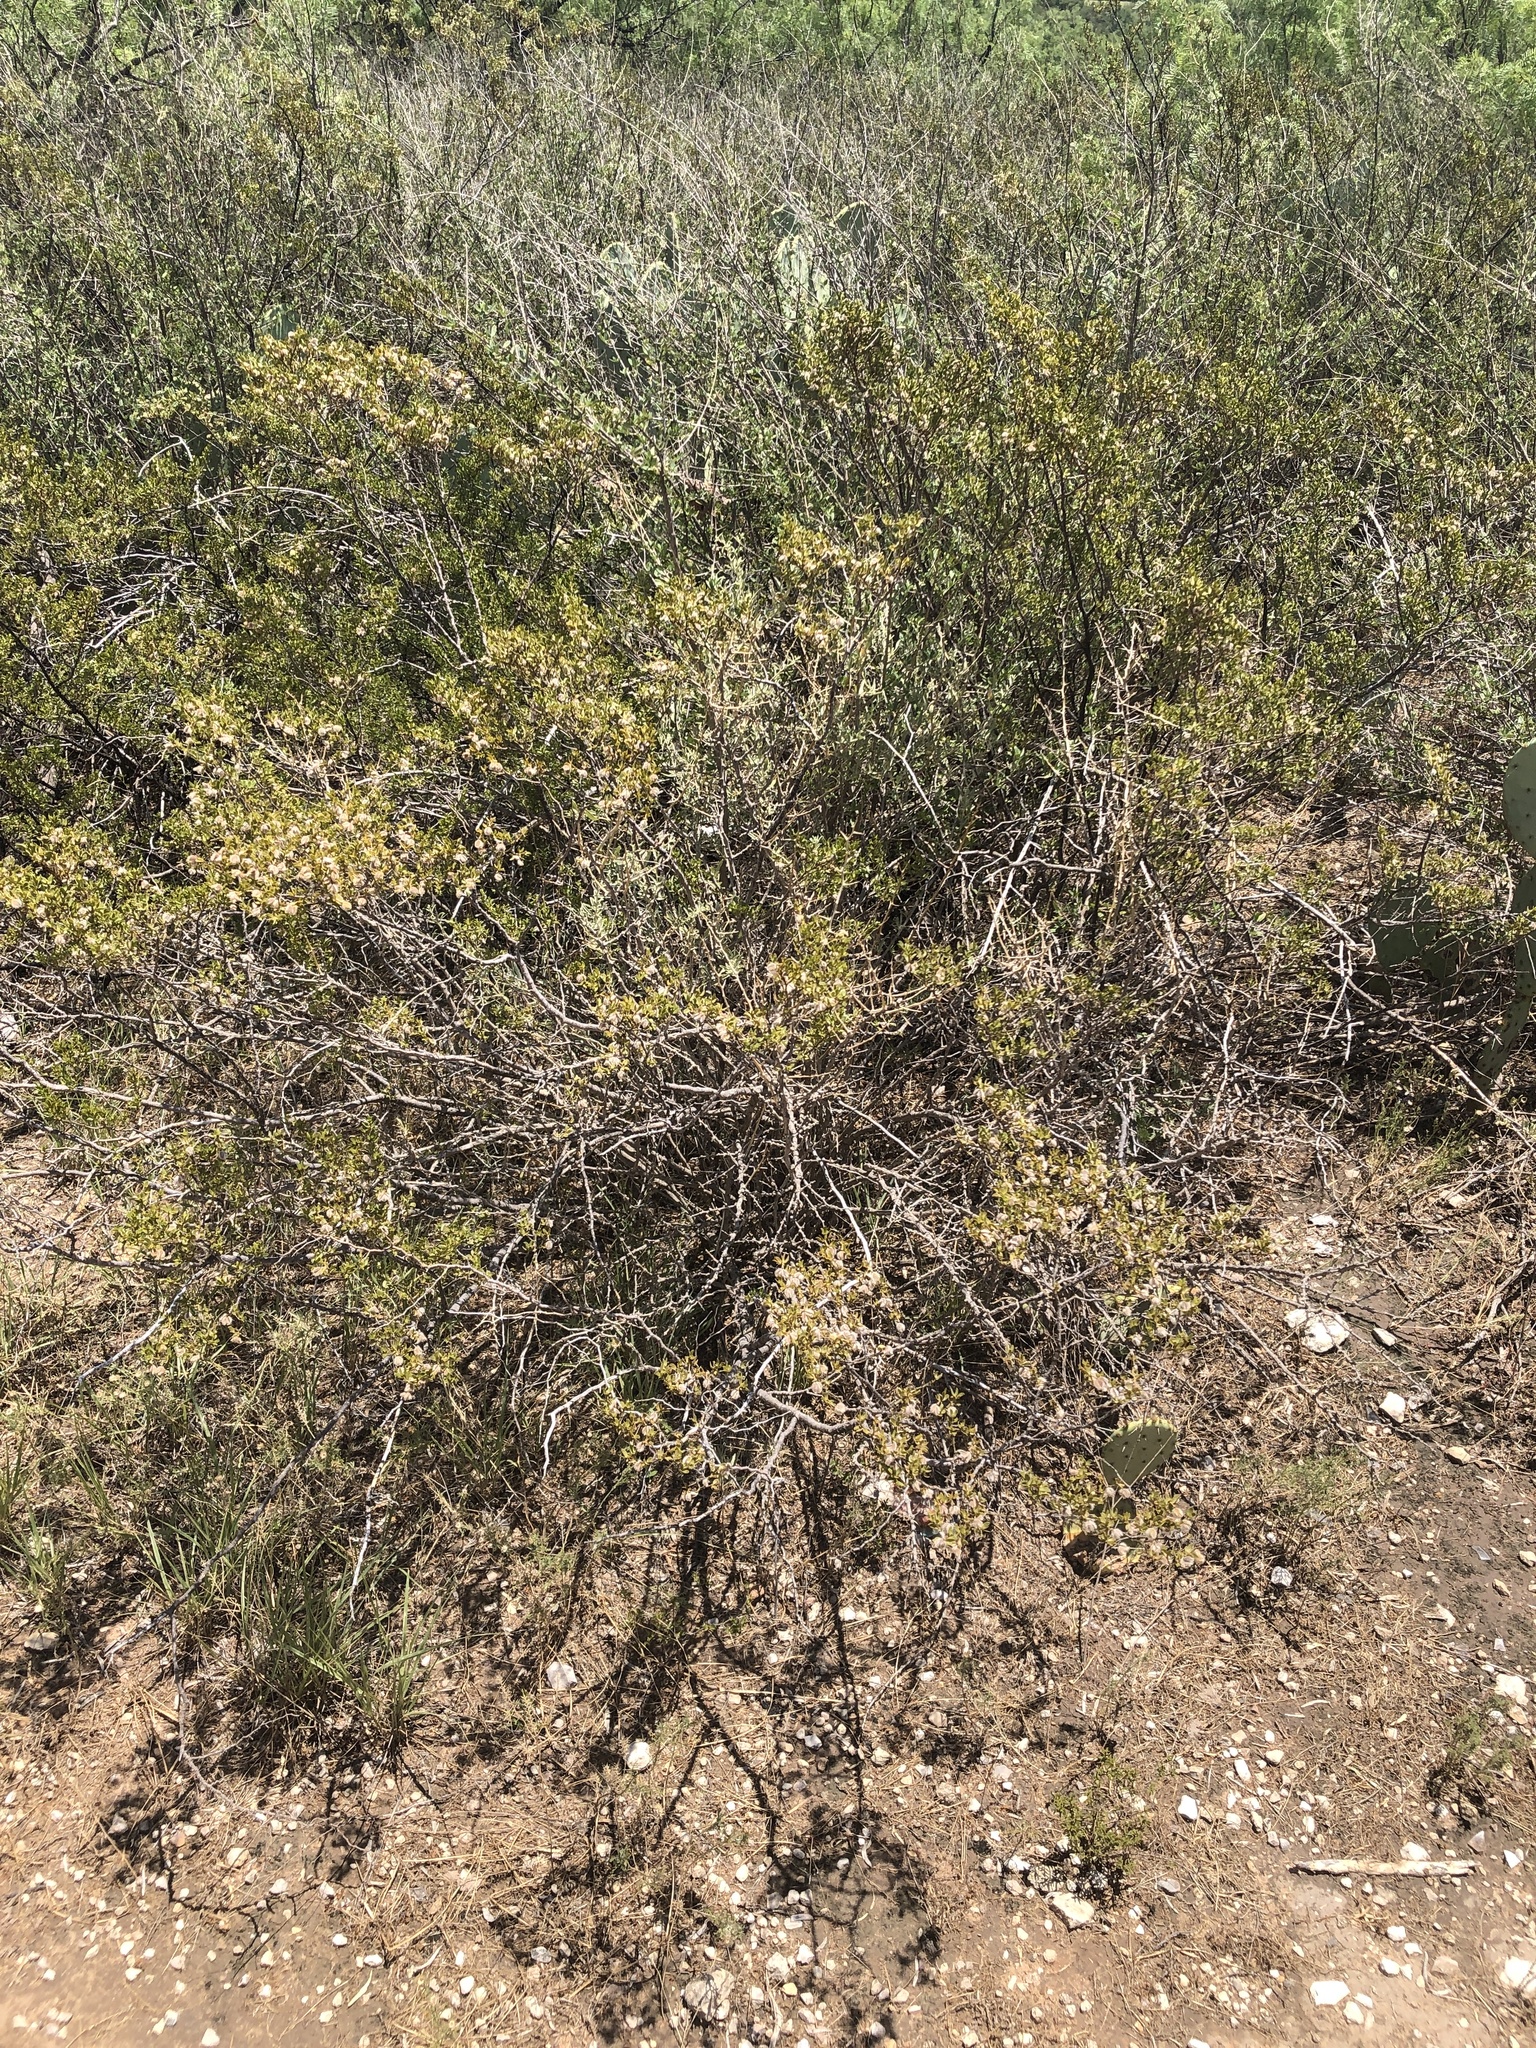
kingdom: Plantae
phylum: Tracheophyta
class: Magnoliopsida
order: Zygophyllales
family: Zygophyllaceae
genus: Larrea
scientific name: Larrea tridentata
